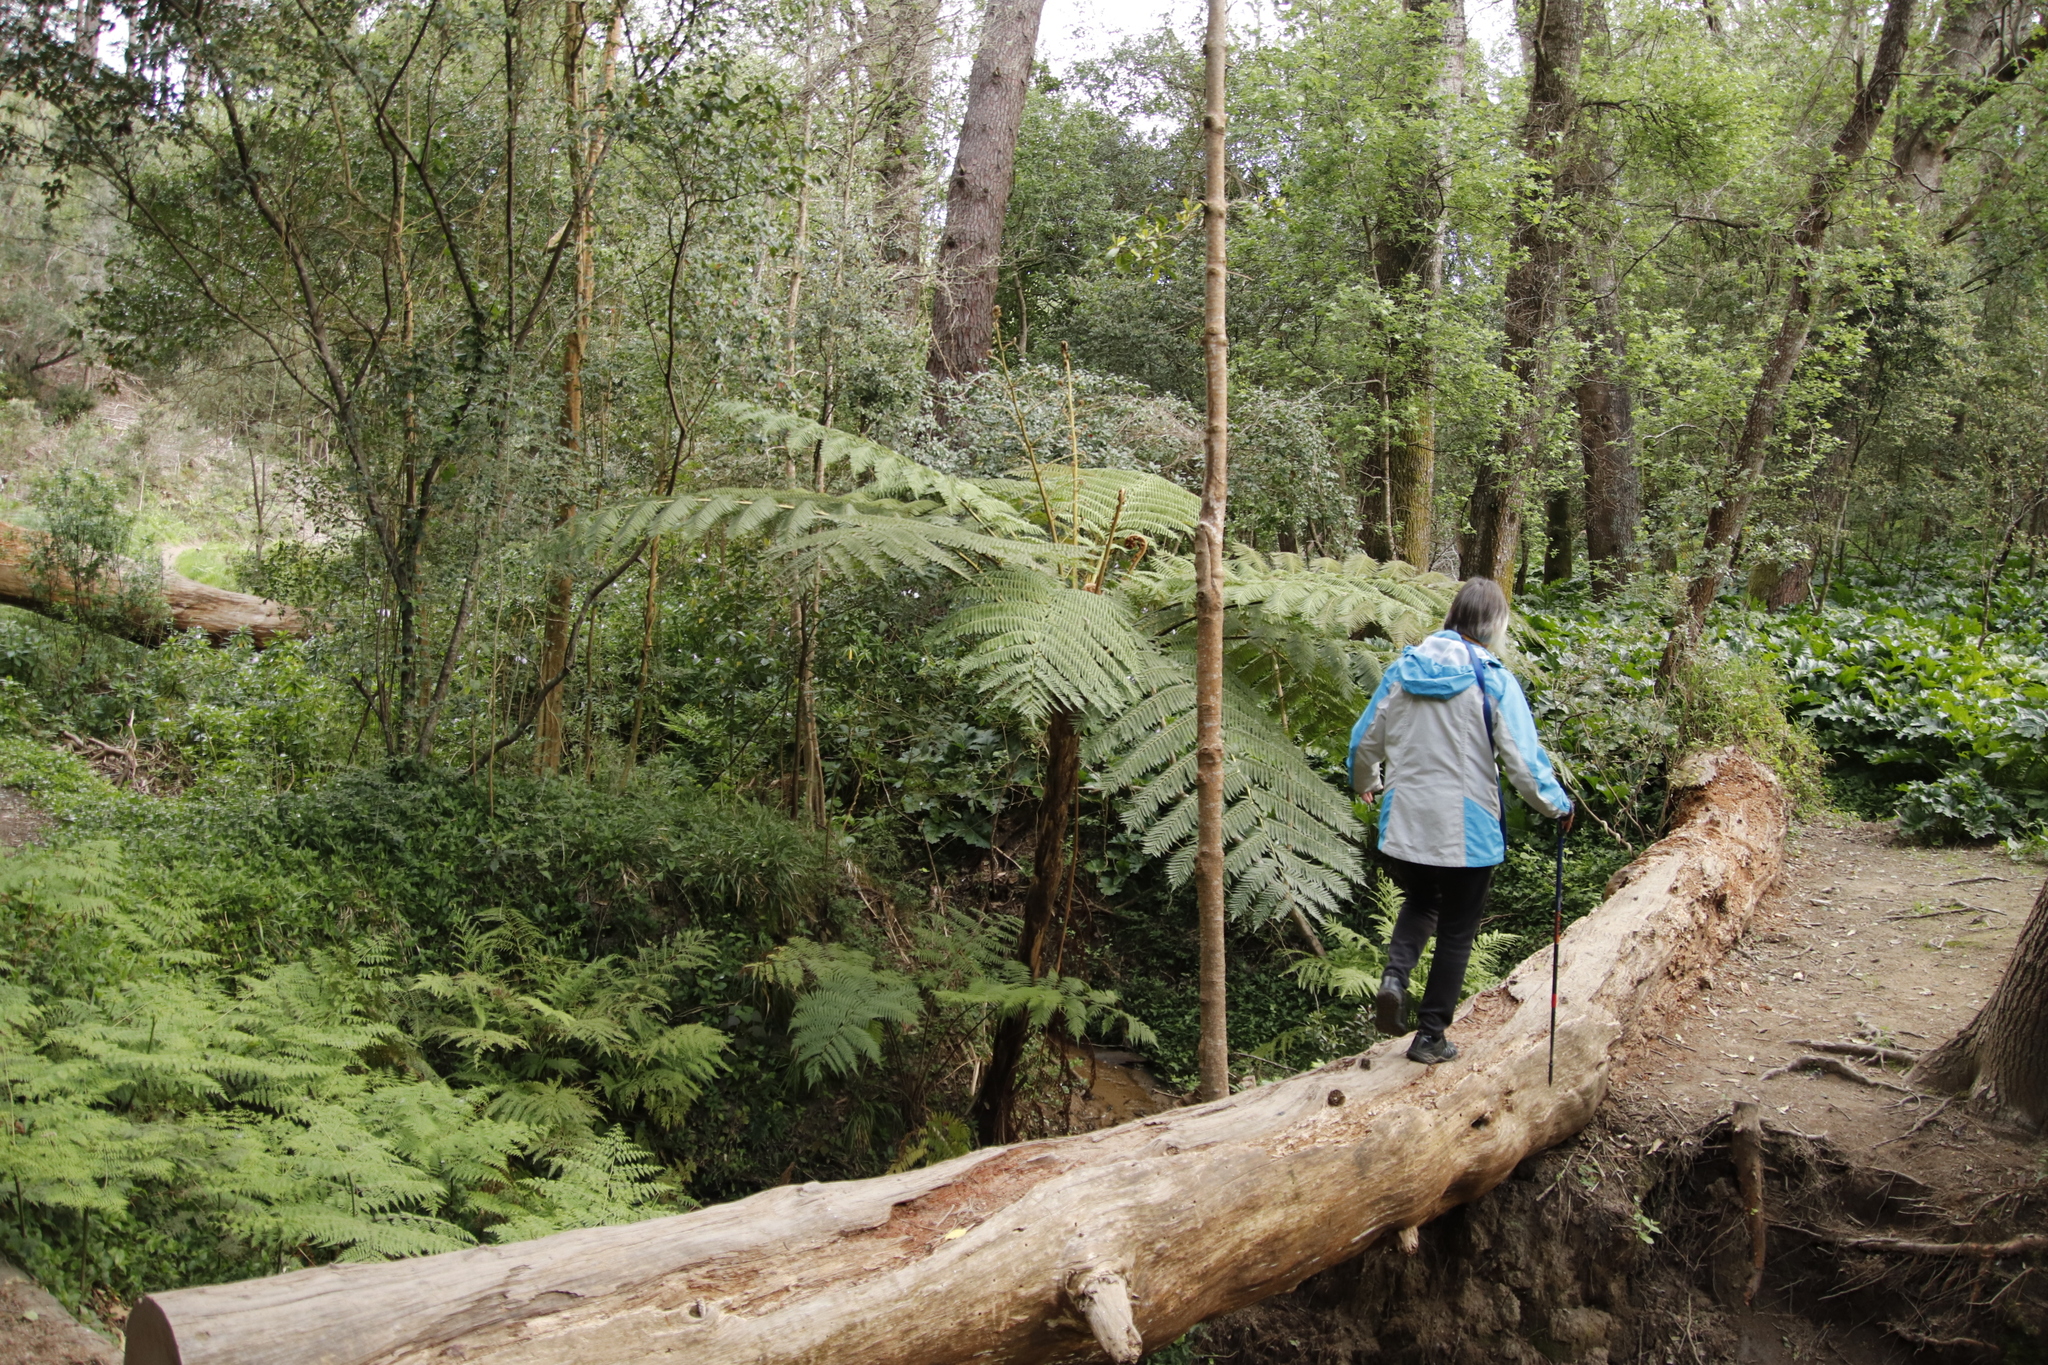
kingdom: Plantae
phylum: Tracheophyta
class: Polypodiopsida
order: Cyatheales
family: Cyatheaceae
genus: Sphaeropteris
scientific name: Sphaeropteris cooperi
